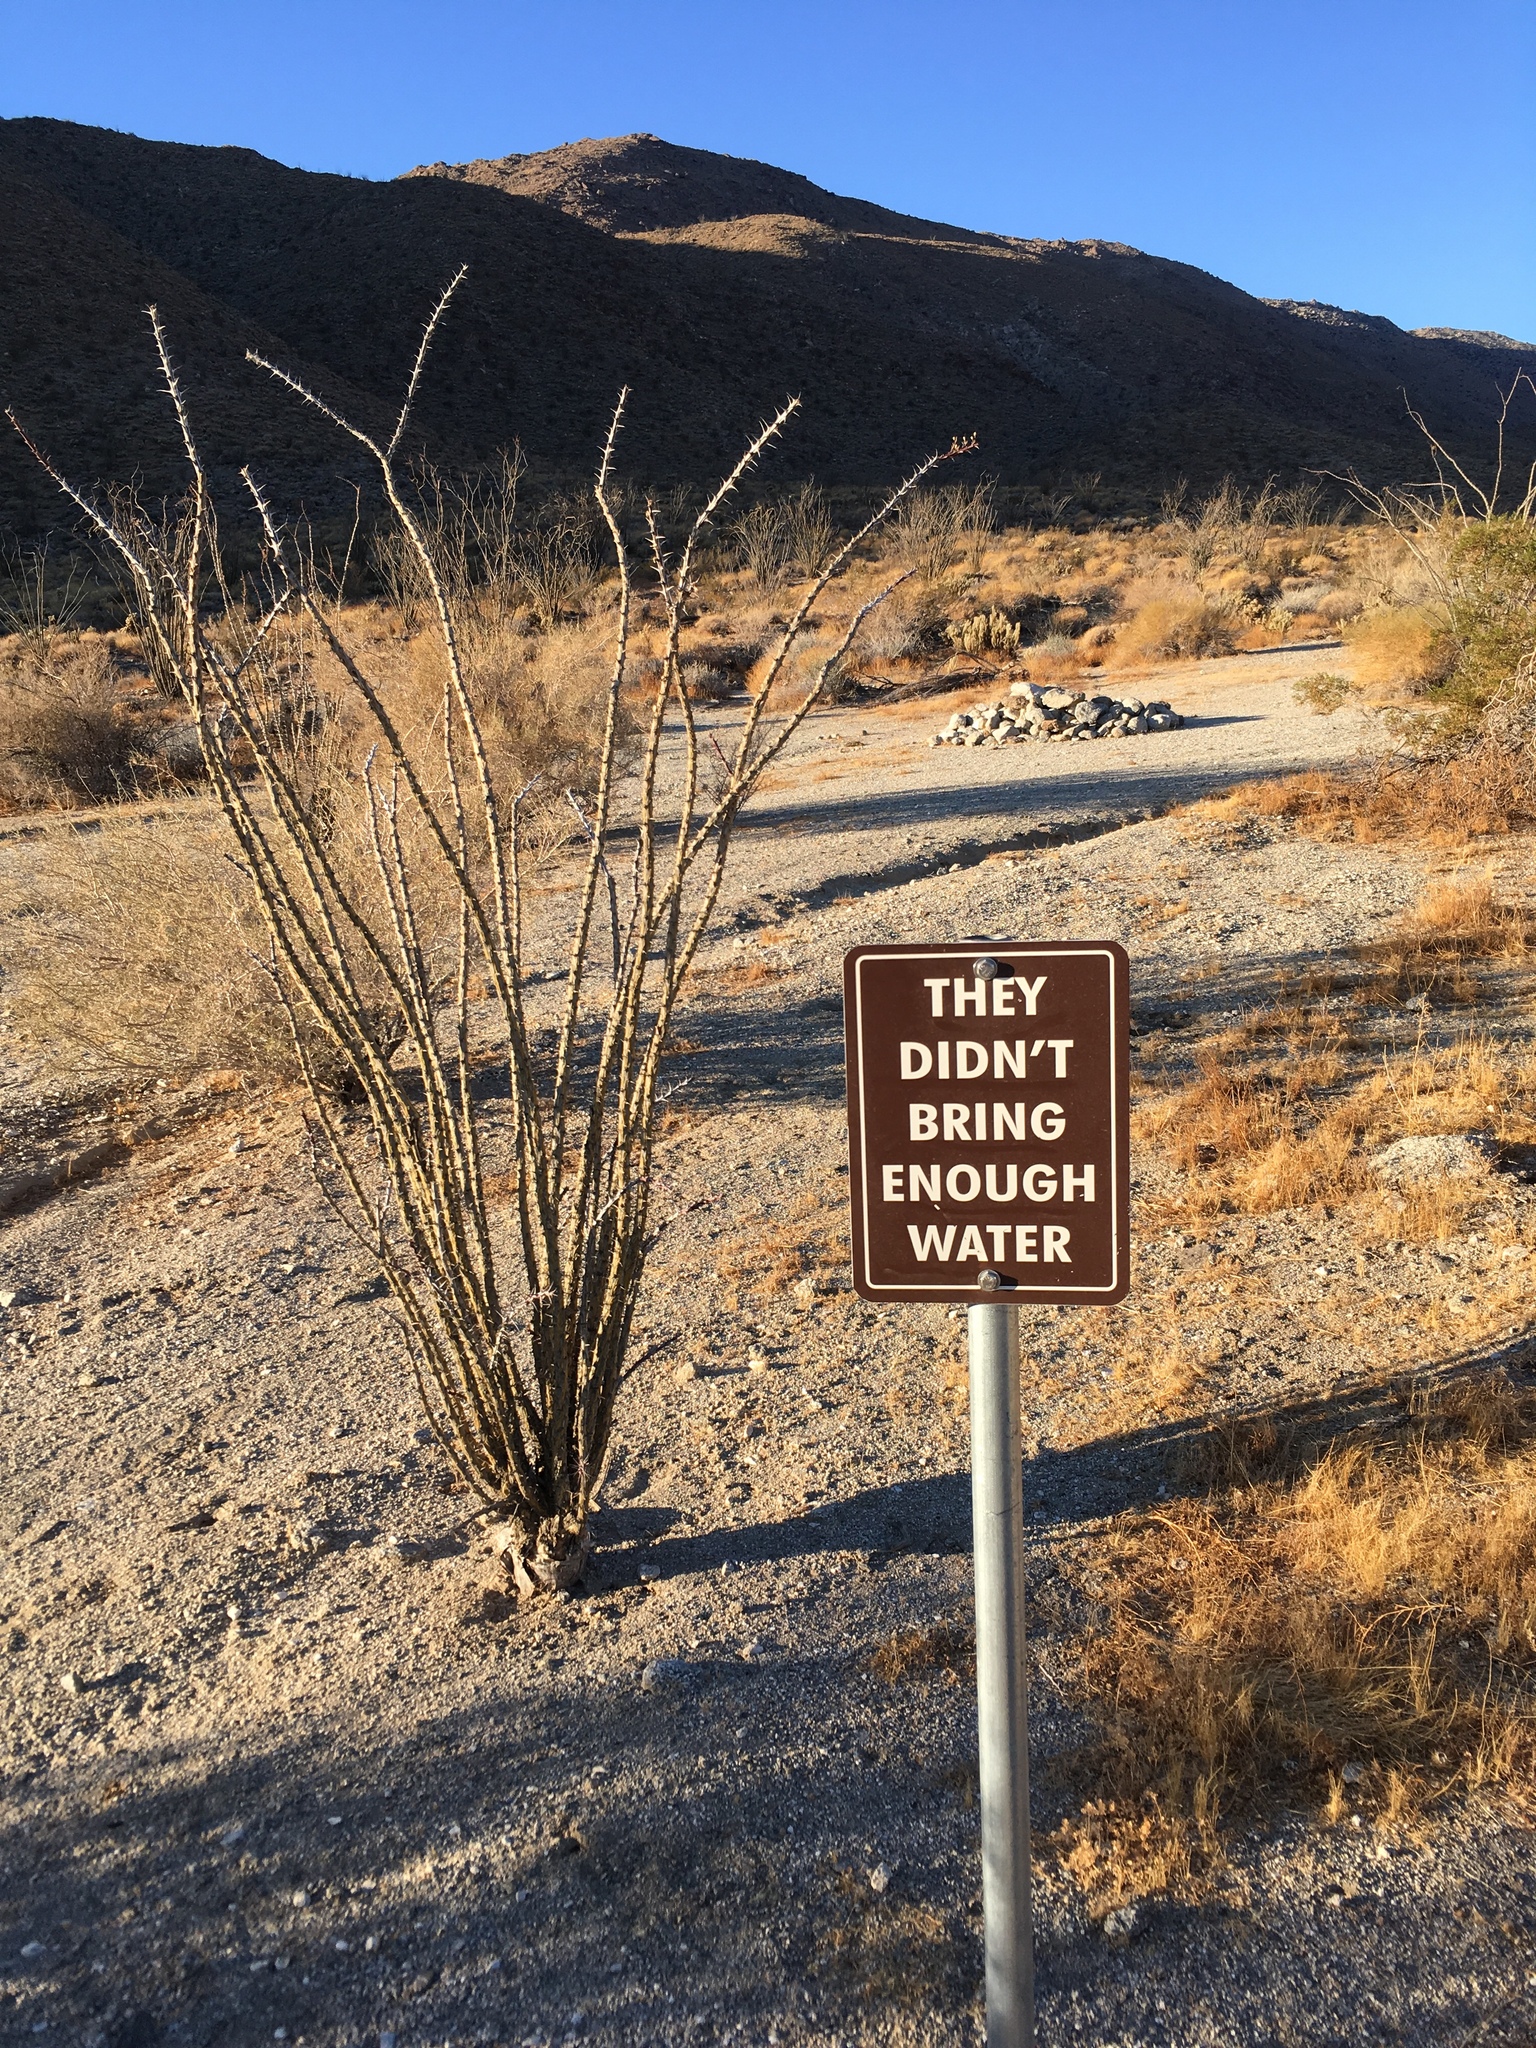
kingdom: Plantae
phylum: Tracheophyta
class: Magnoliopsida
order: Ericales
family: Fouquieriaceae
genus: Fouquieria
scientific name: Fouquieria splendens
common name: Vine-cactus
